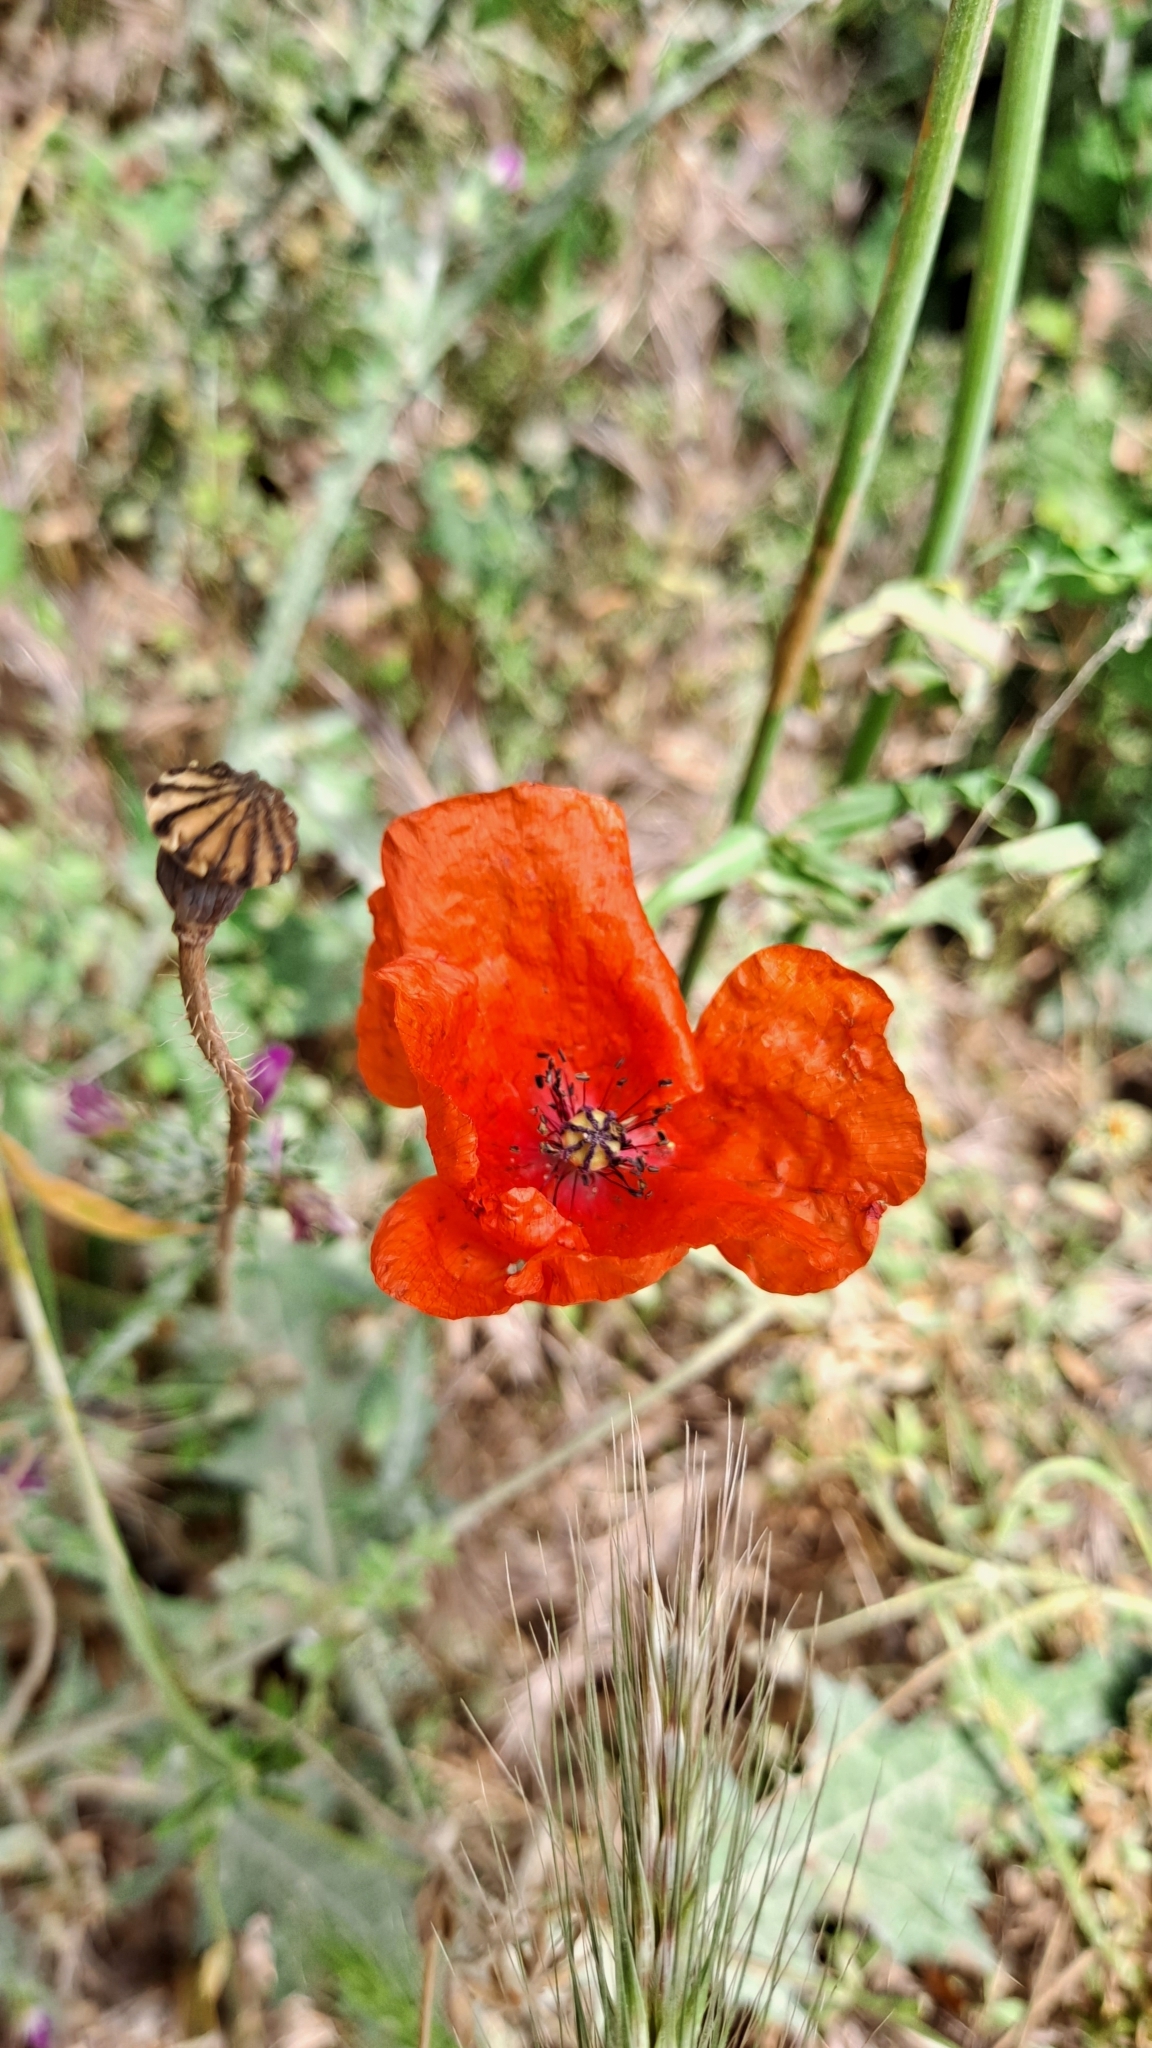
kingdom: Plantae
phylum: Tracheophyta
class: Magnoliopsida
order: Ranunculales
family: Papaveraceae
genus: Papaver
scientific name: Papaver rhoeas
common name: Corn poppy
